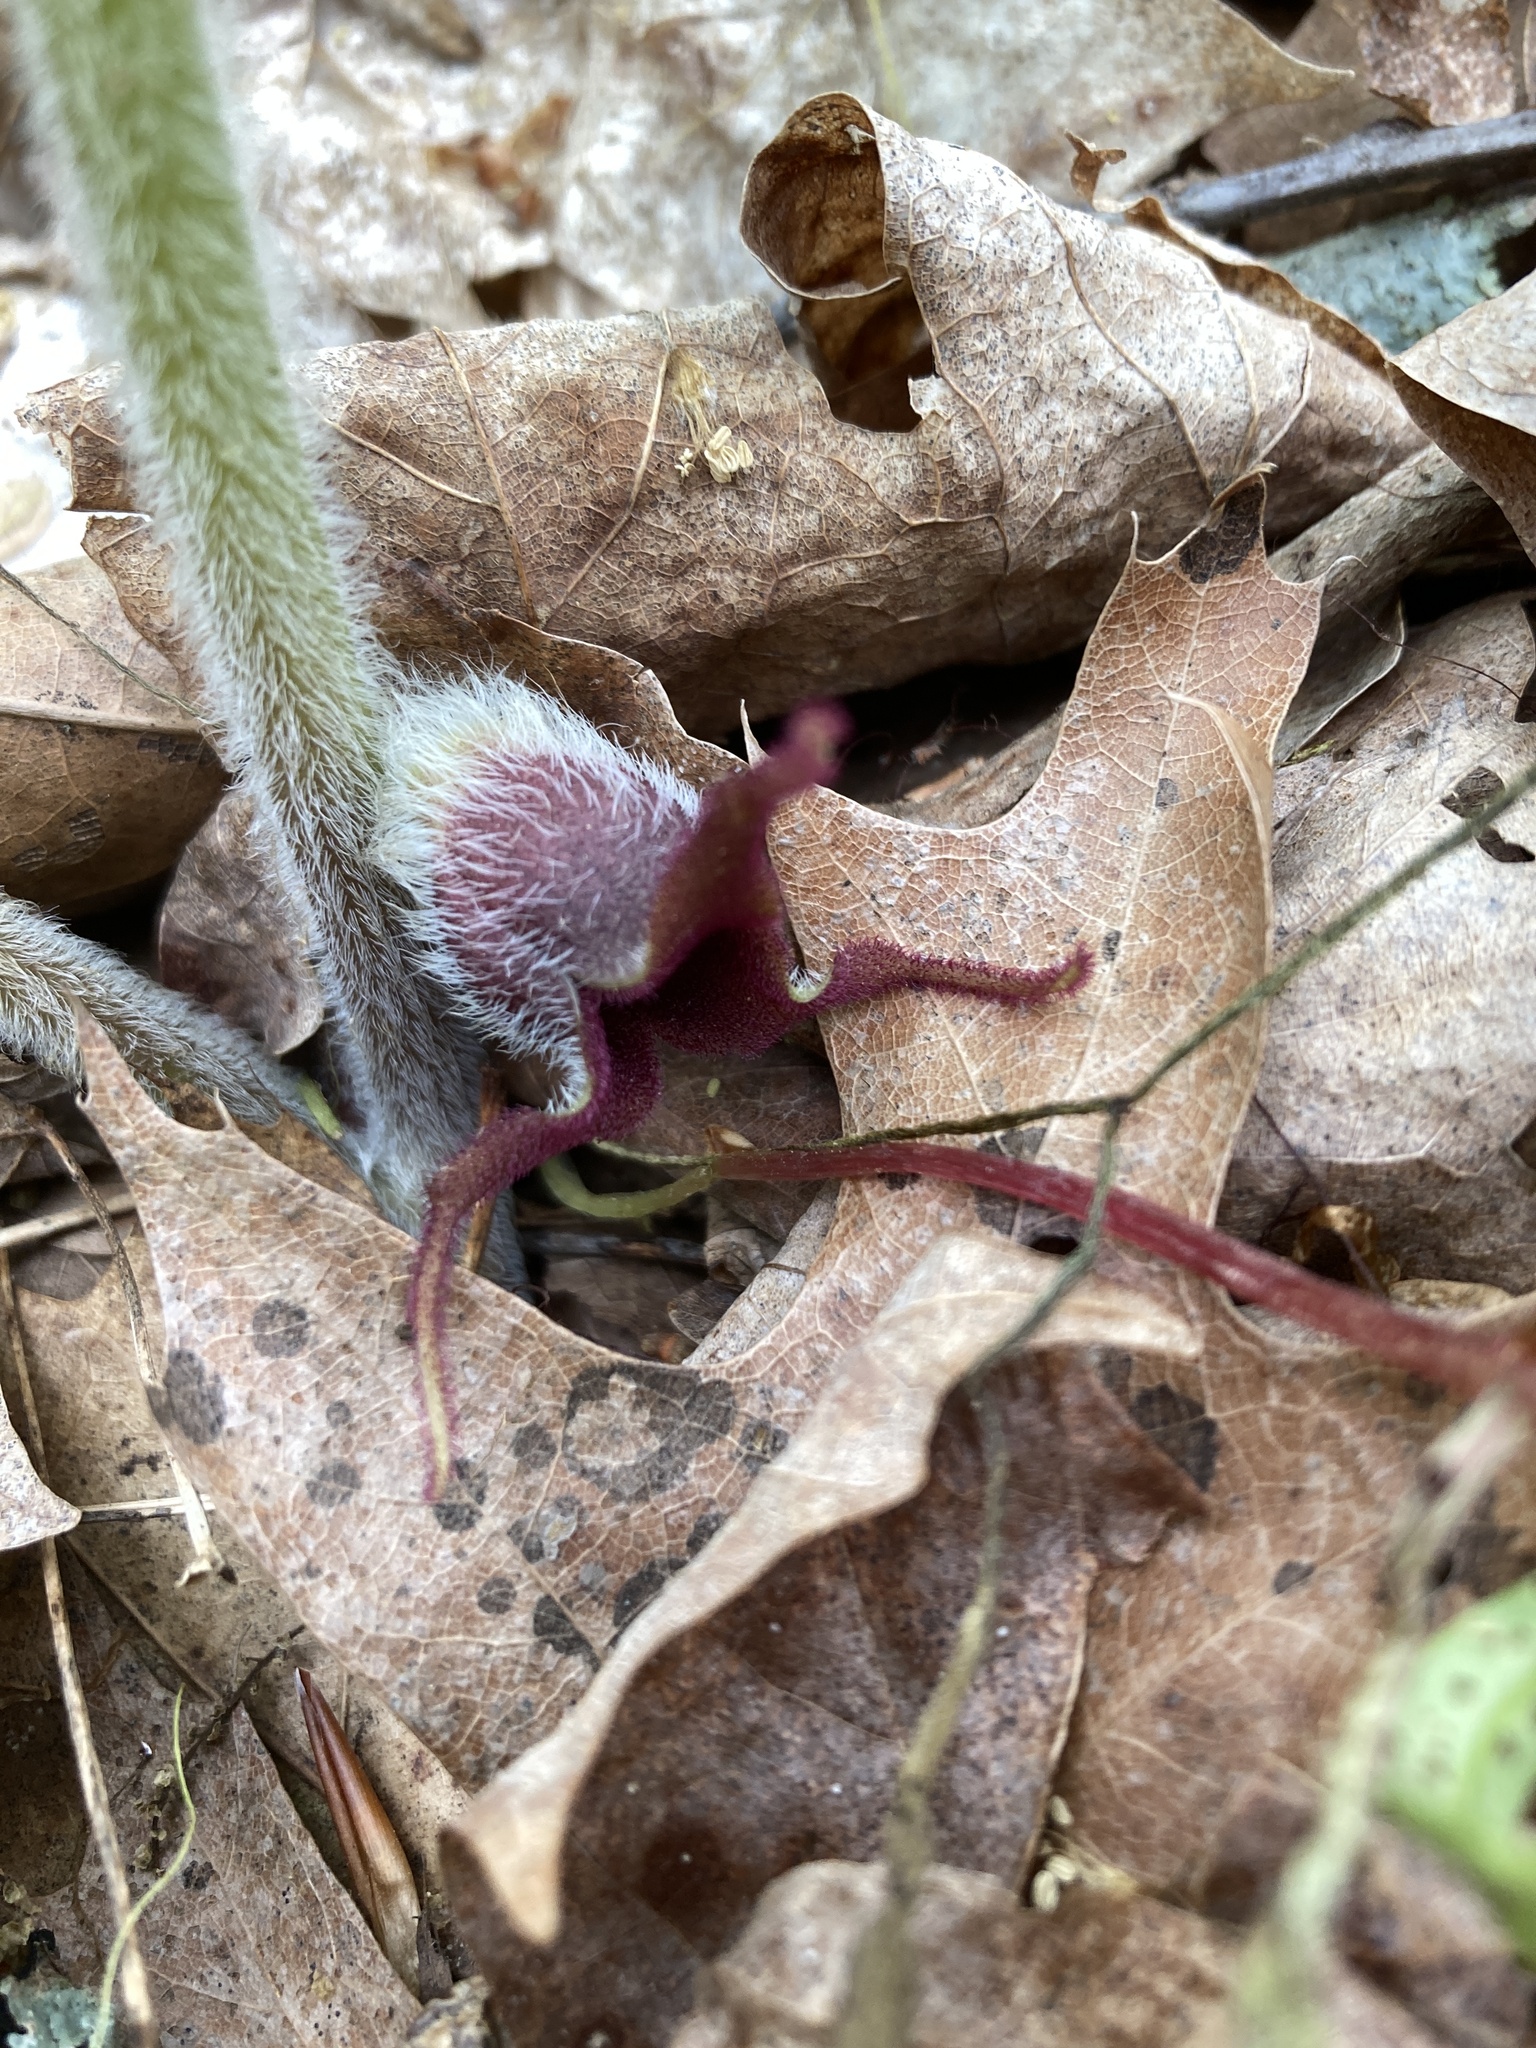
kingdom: Plantae
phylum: Tracheophyta
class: Magnoliopsida
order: Piperales
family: Aristolochiaceae
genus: Asarum
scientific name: Asarum canadense
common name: Wild ginger
